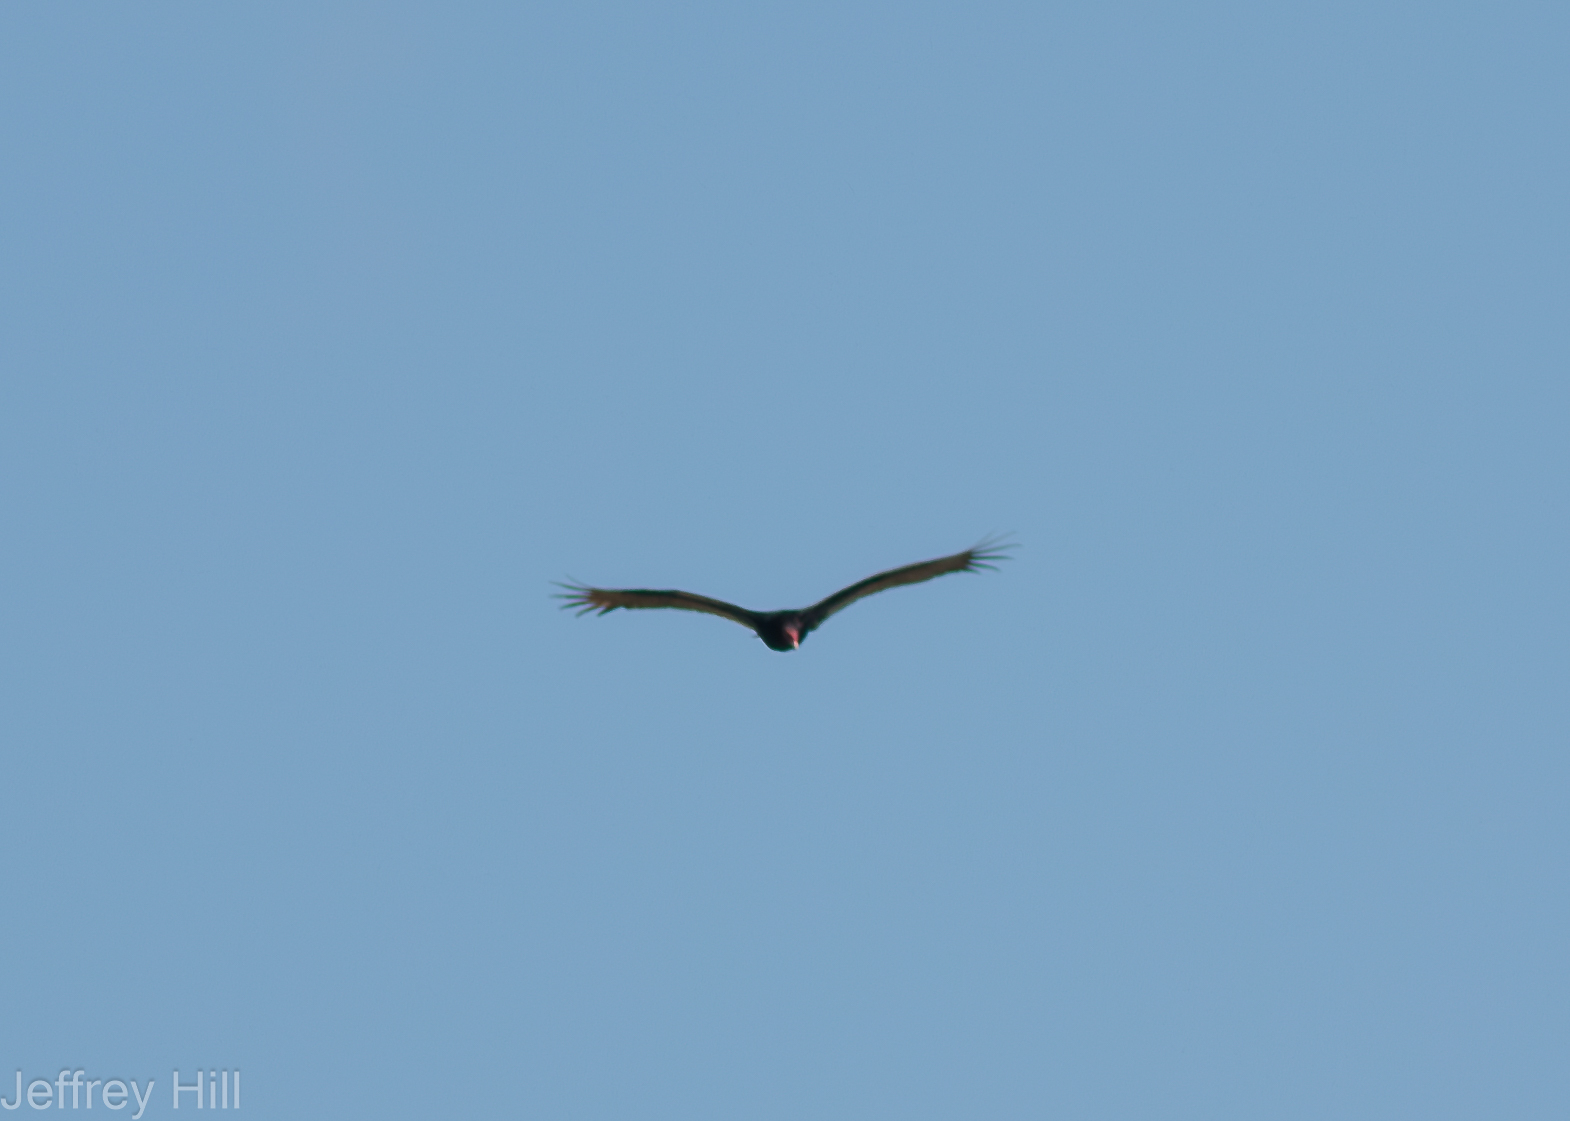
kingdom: Animalia
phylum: Chordata
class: Aves
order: Accipitriformes
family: Cathartidae
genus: Cathartes
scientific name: Cathartes aura
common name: Turkey vulture
